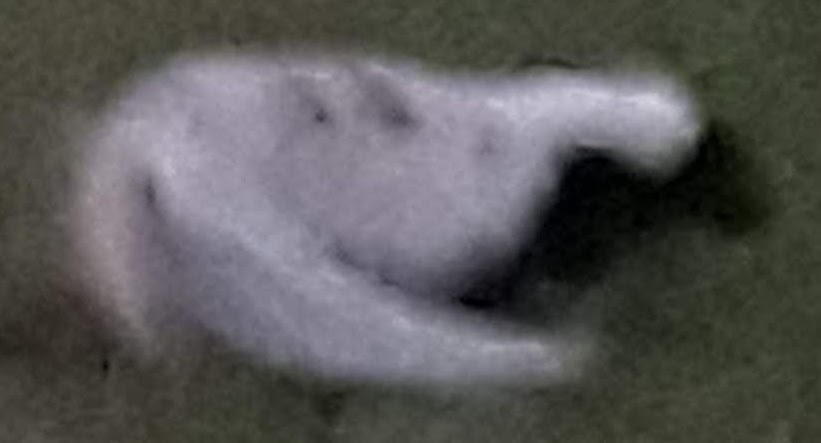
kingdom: Animalia
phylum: Chordata
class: Mammalia
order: Carnivora
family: Mephitidae
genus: Mephitis
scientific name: Mephitis mephitis
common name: Striped skunk
